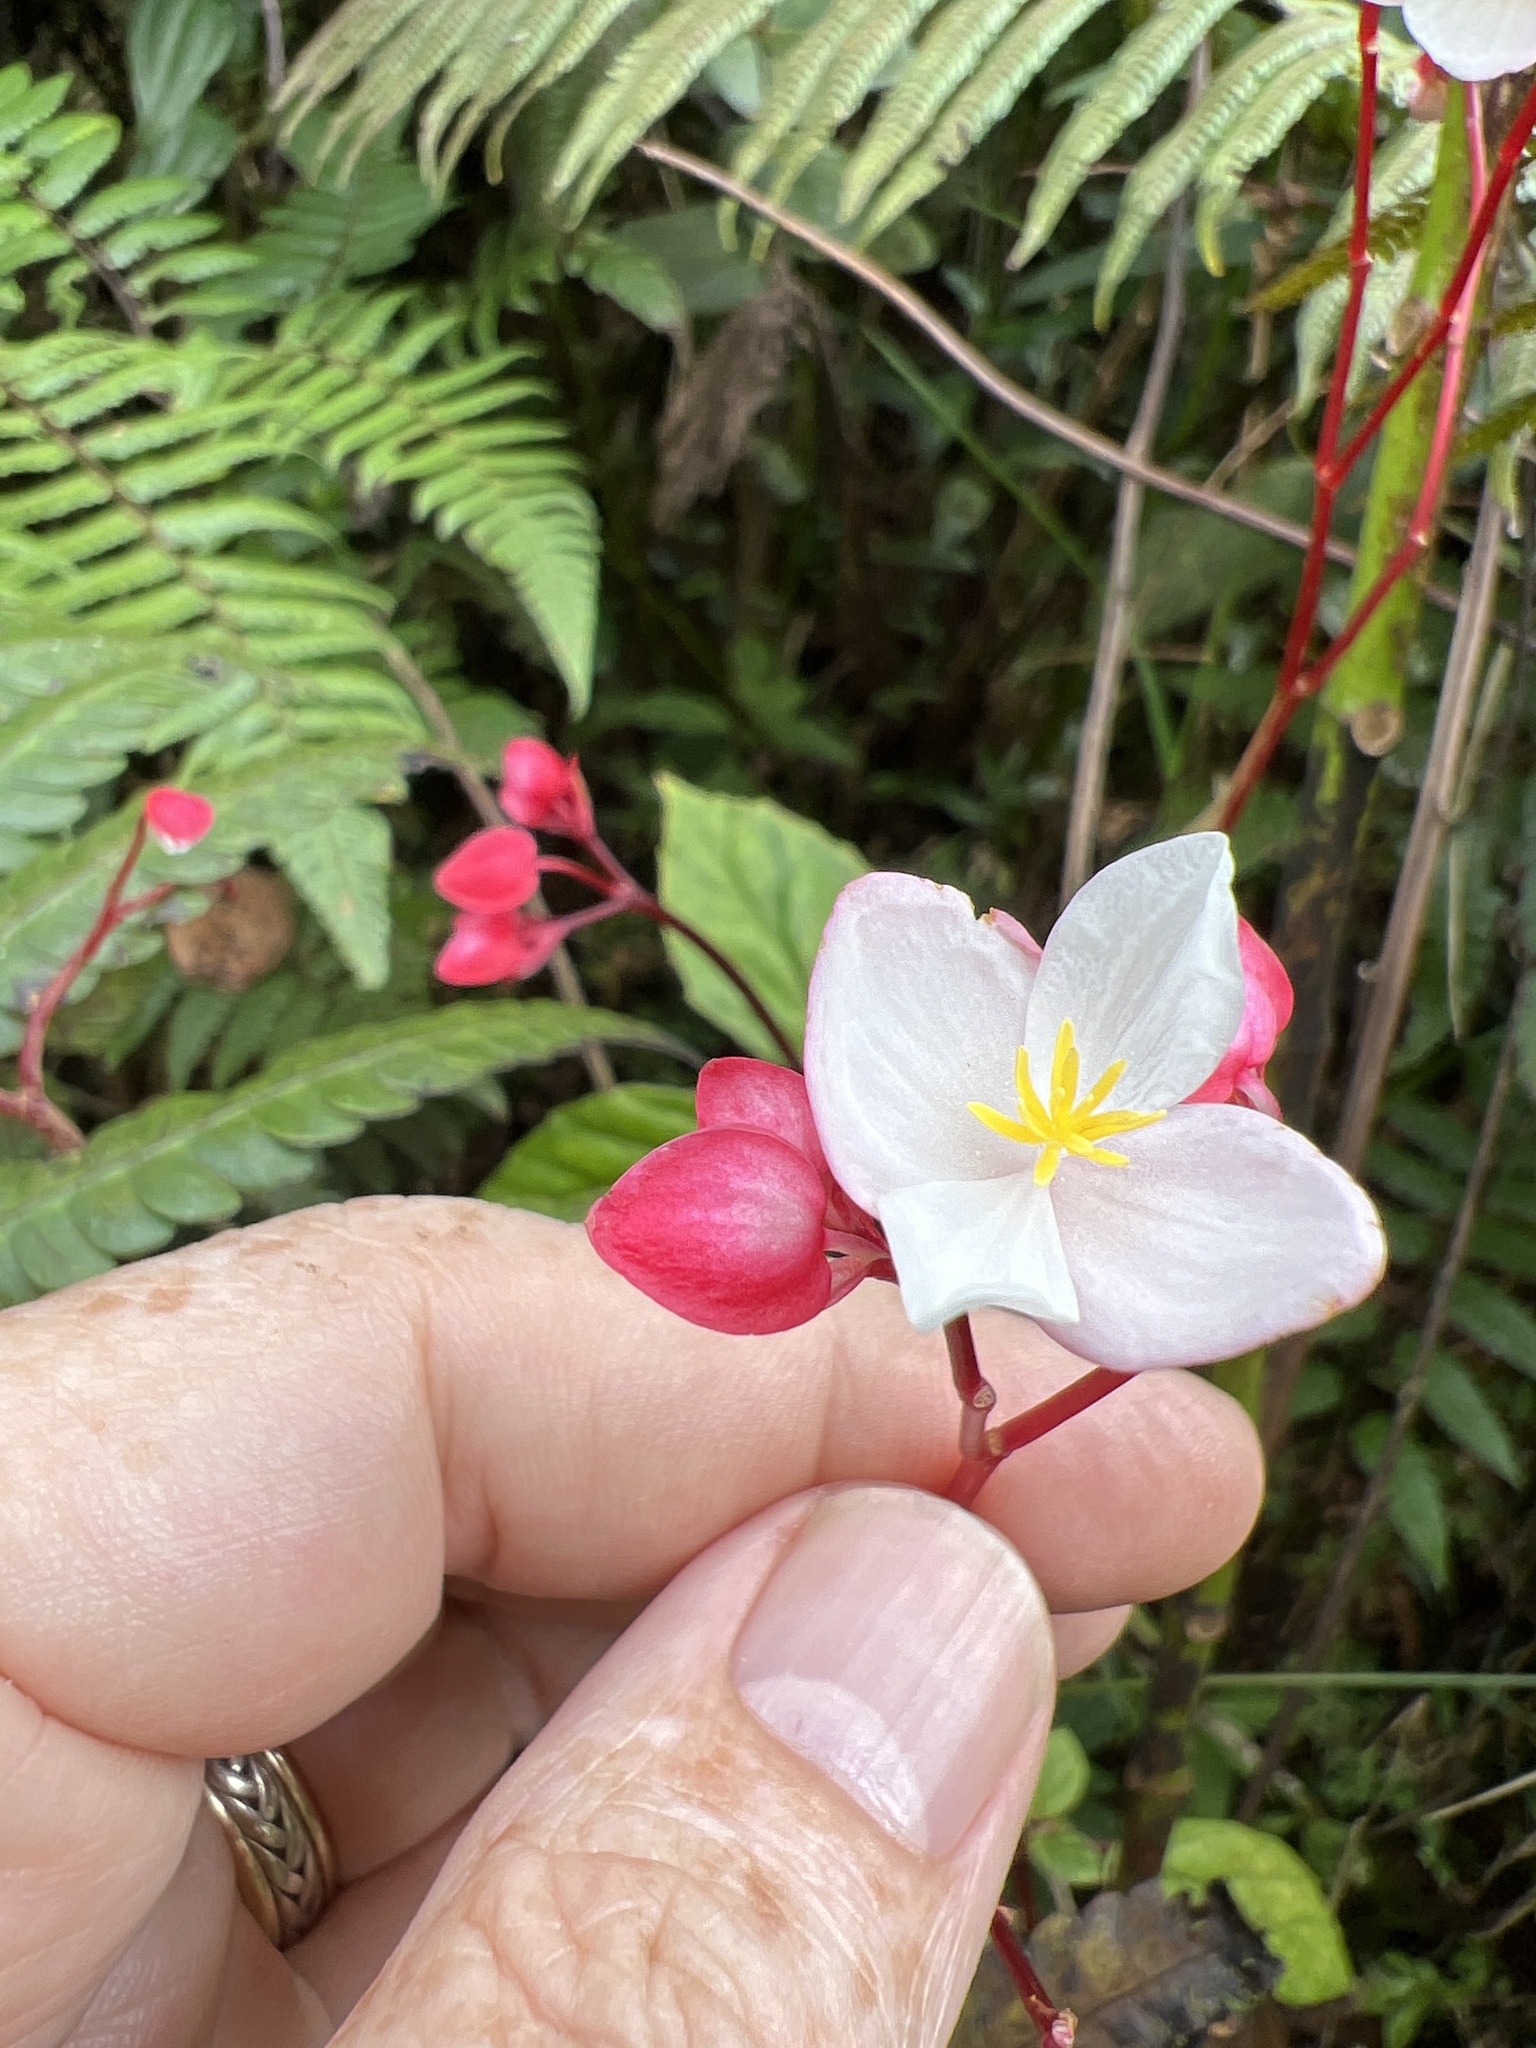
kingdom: Plantae
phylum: Tracheophyta
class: Magnoliopsida
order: Cucurbitales
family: Begoniaceae
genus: Begonia
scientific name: Begonia decandra
